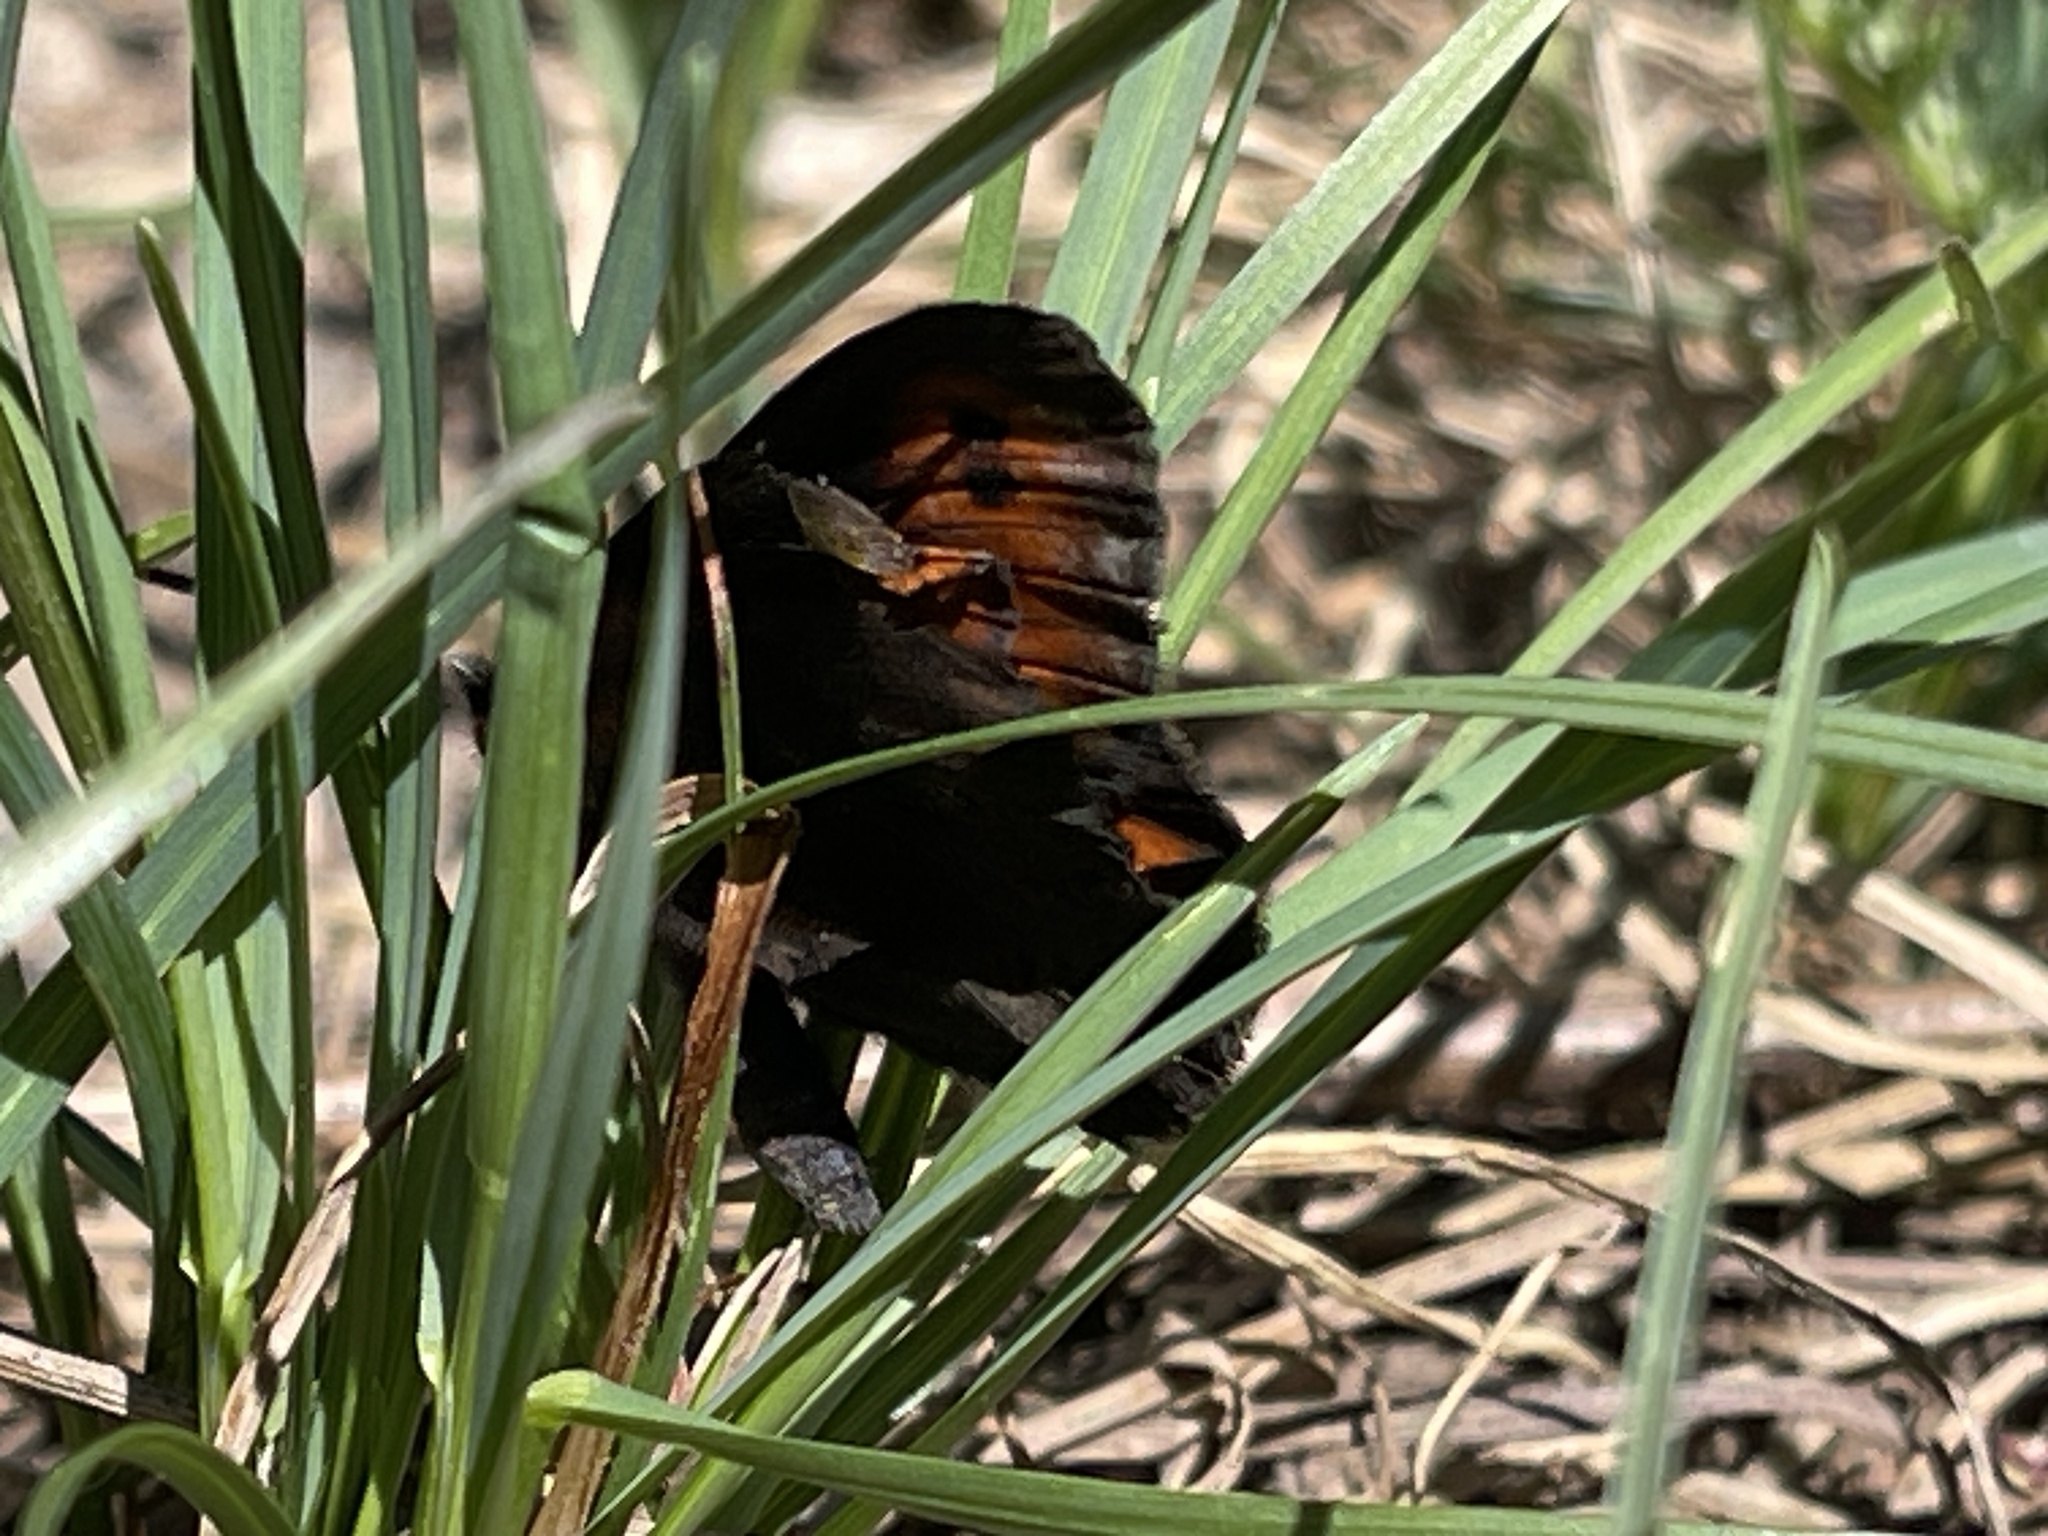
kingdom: Animalia
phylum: Arthropoda
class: Insecta
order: Lepidoptera
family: Nymphalidae
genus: Erebia
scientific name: Erebia epipsodea
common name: Common alpine
